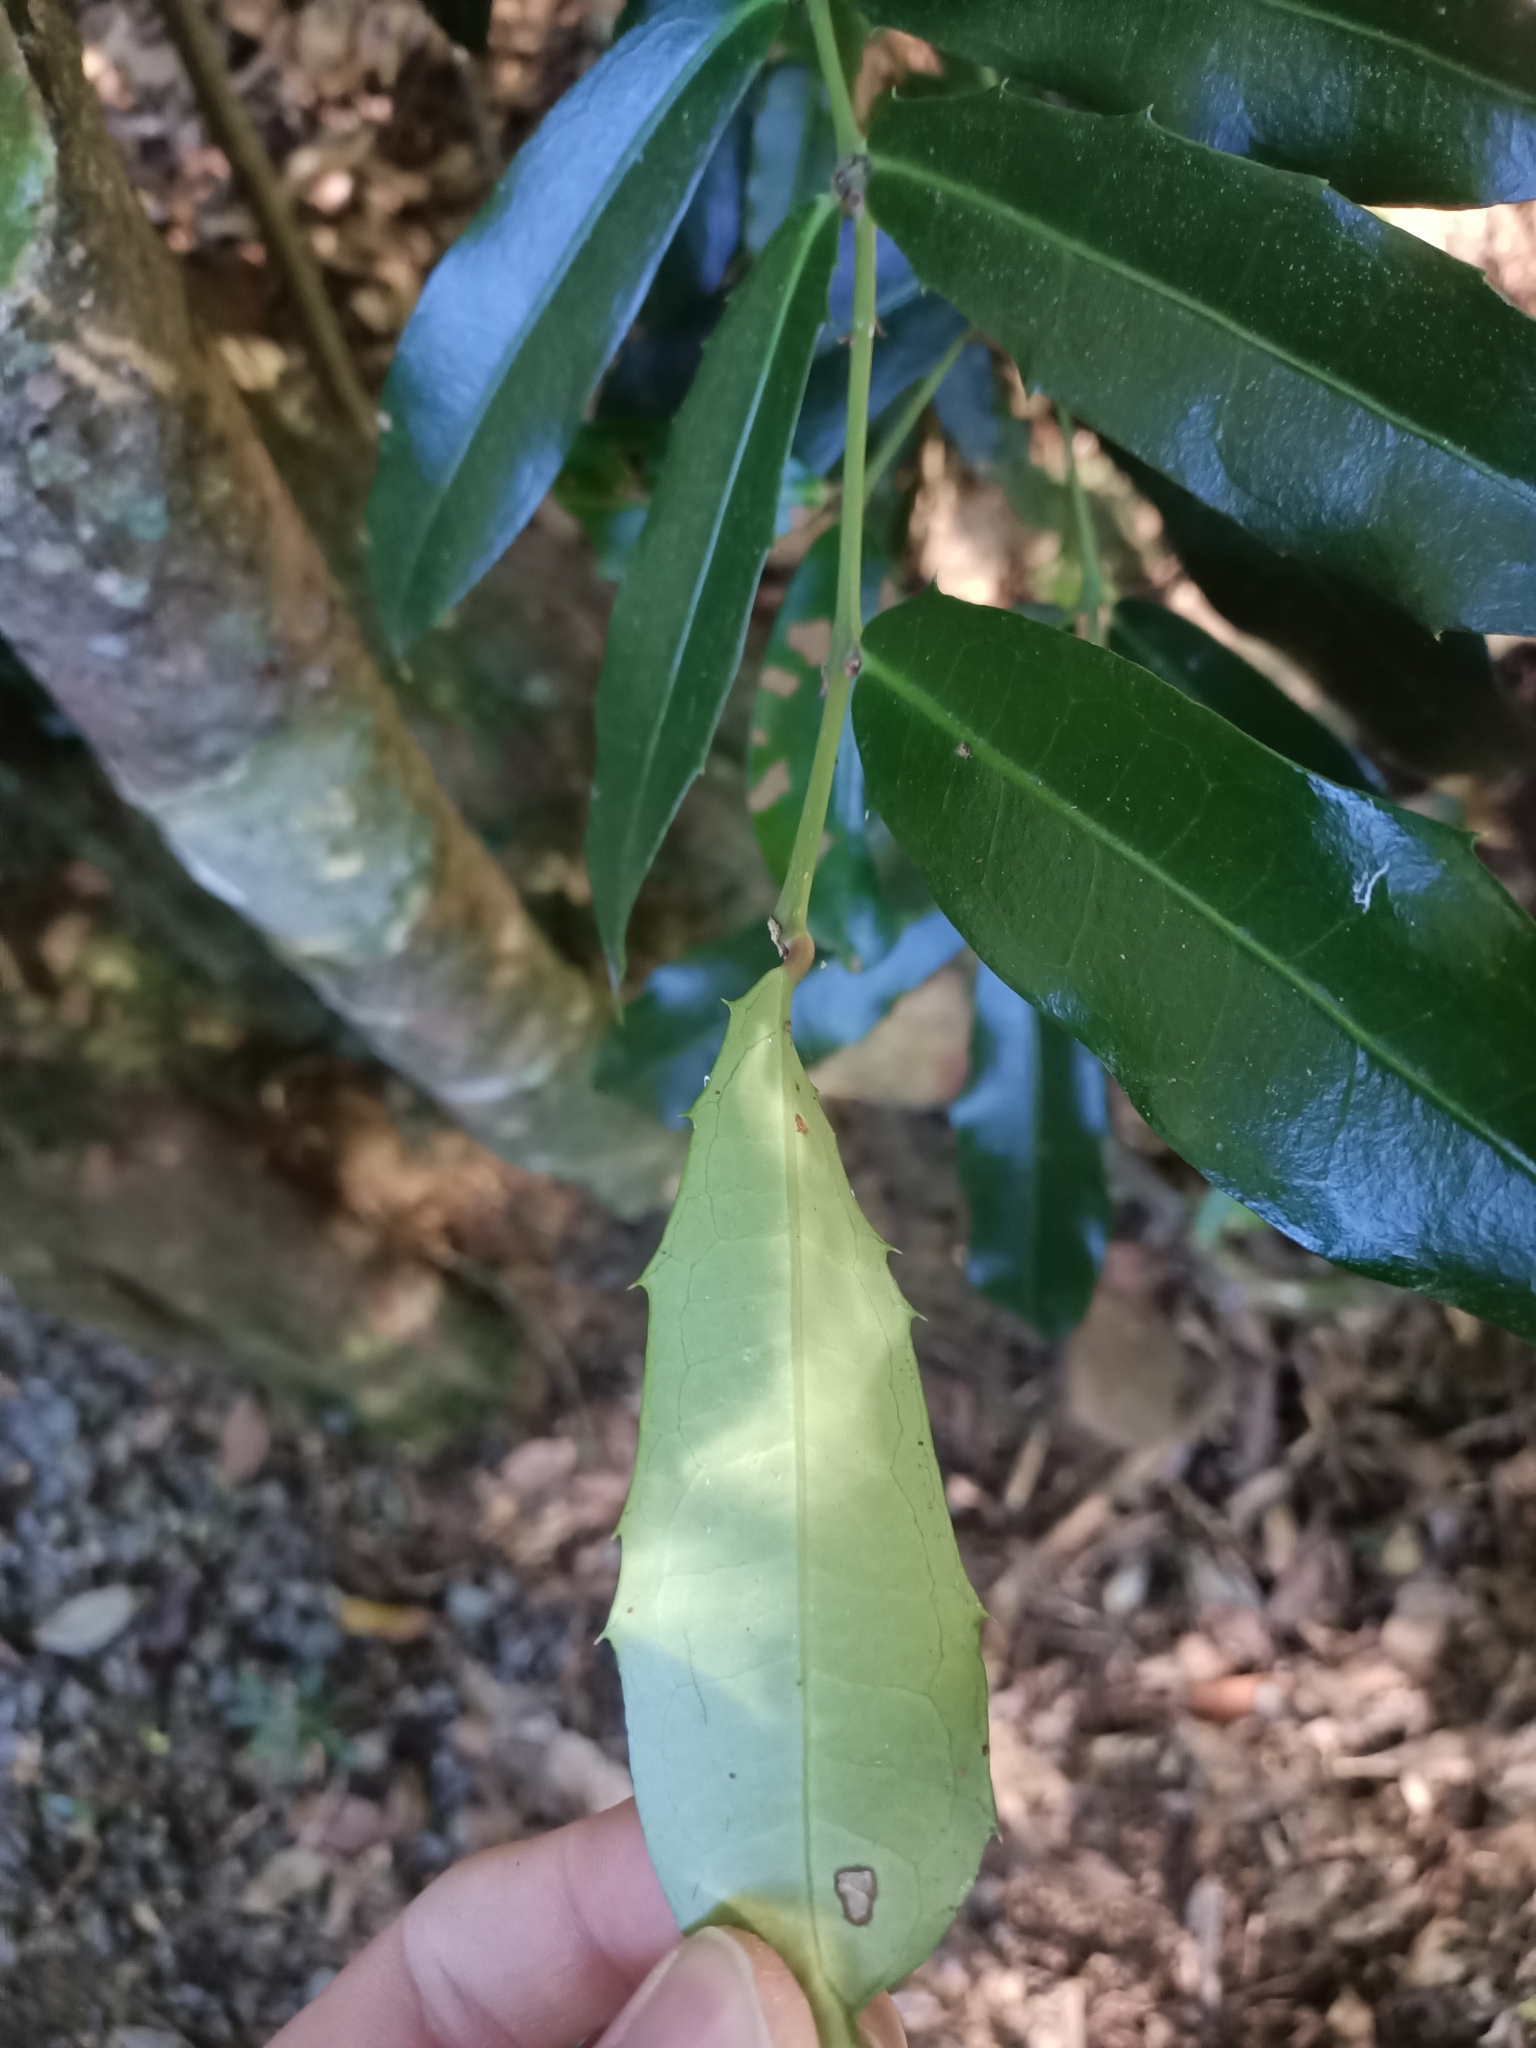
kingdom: Plantae
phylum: Tracheophyta
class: Magnoliopsida
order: Laurales
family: Monimiaceae
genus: Wilkiea
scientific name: Wilkiea macrophylla
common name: Large-leaved wilkiea
